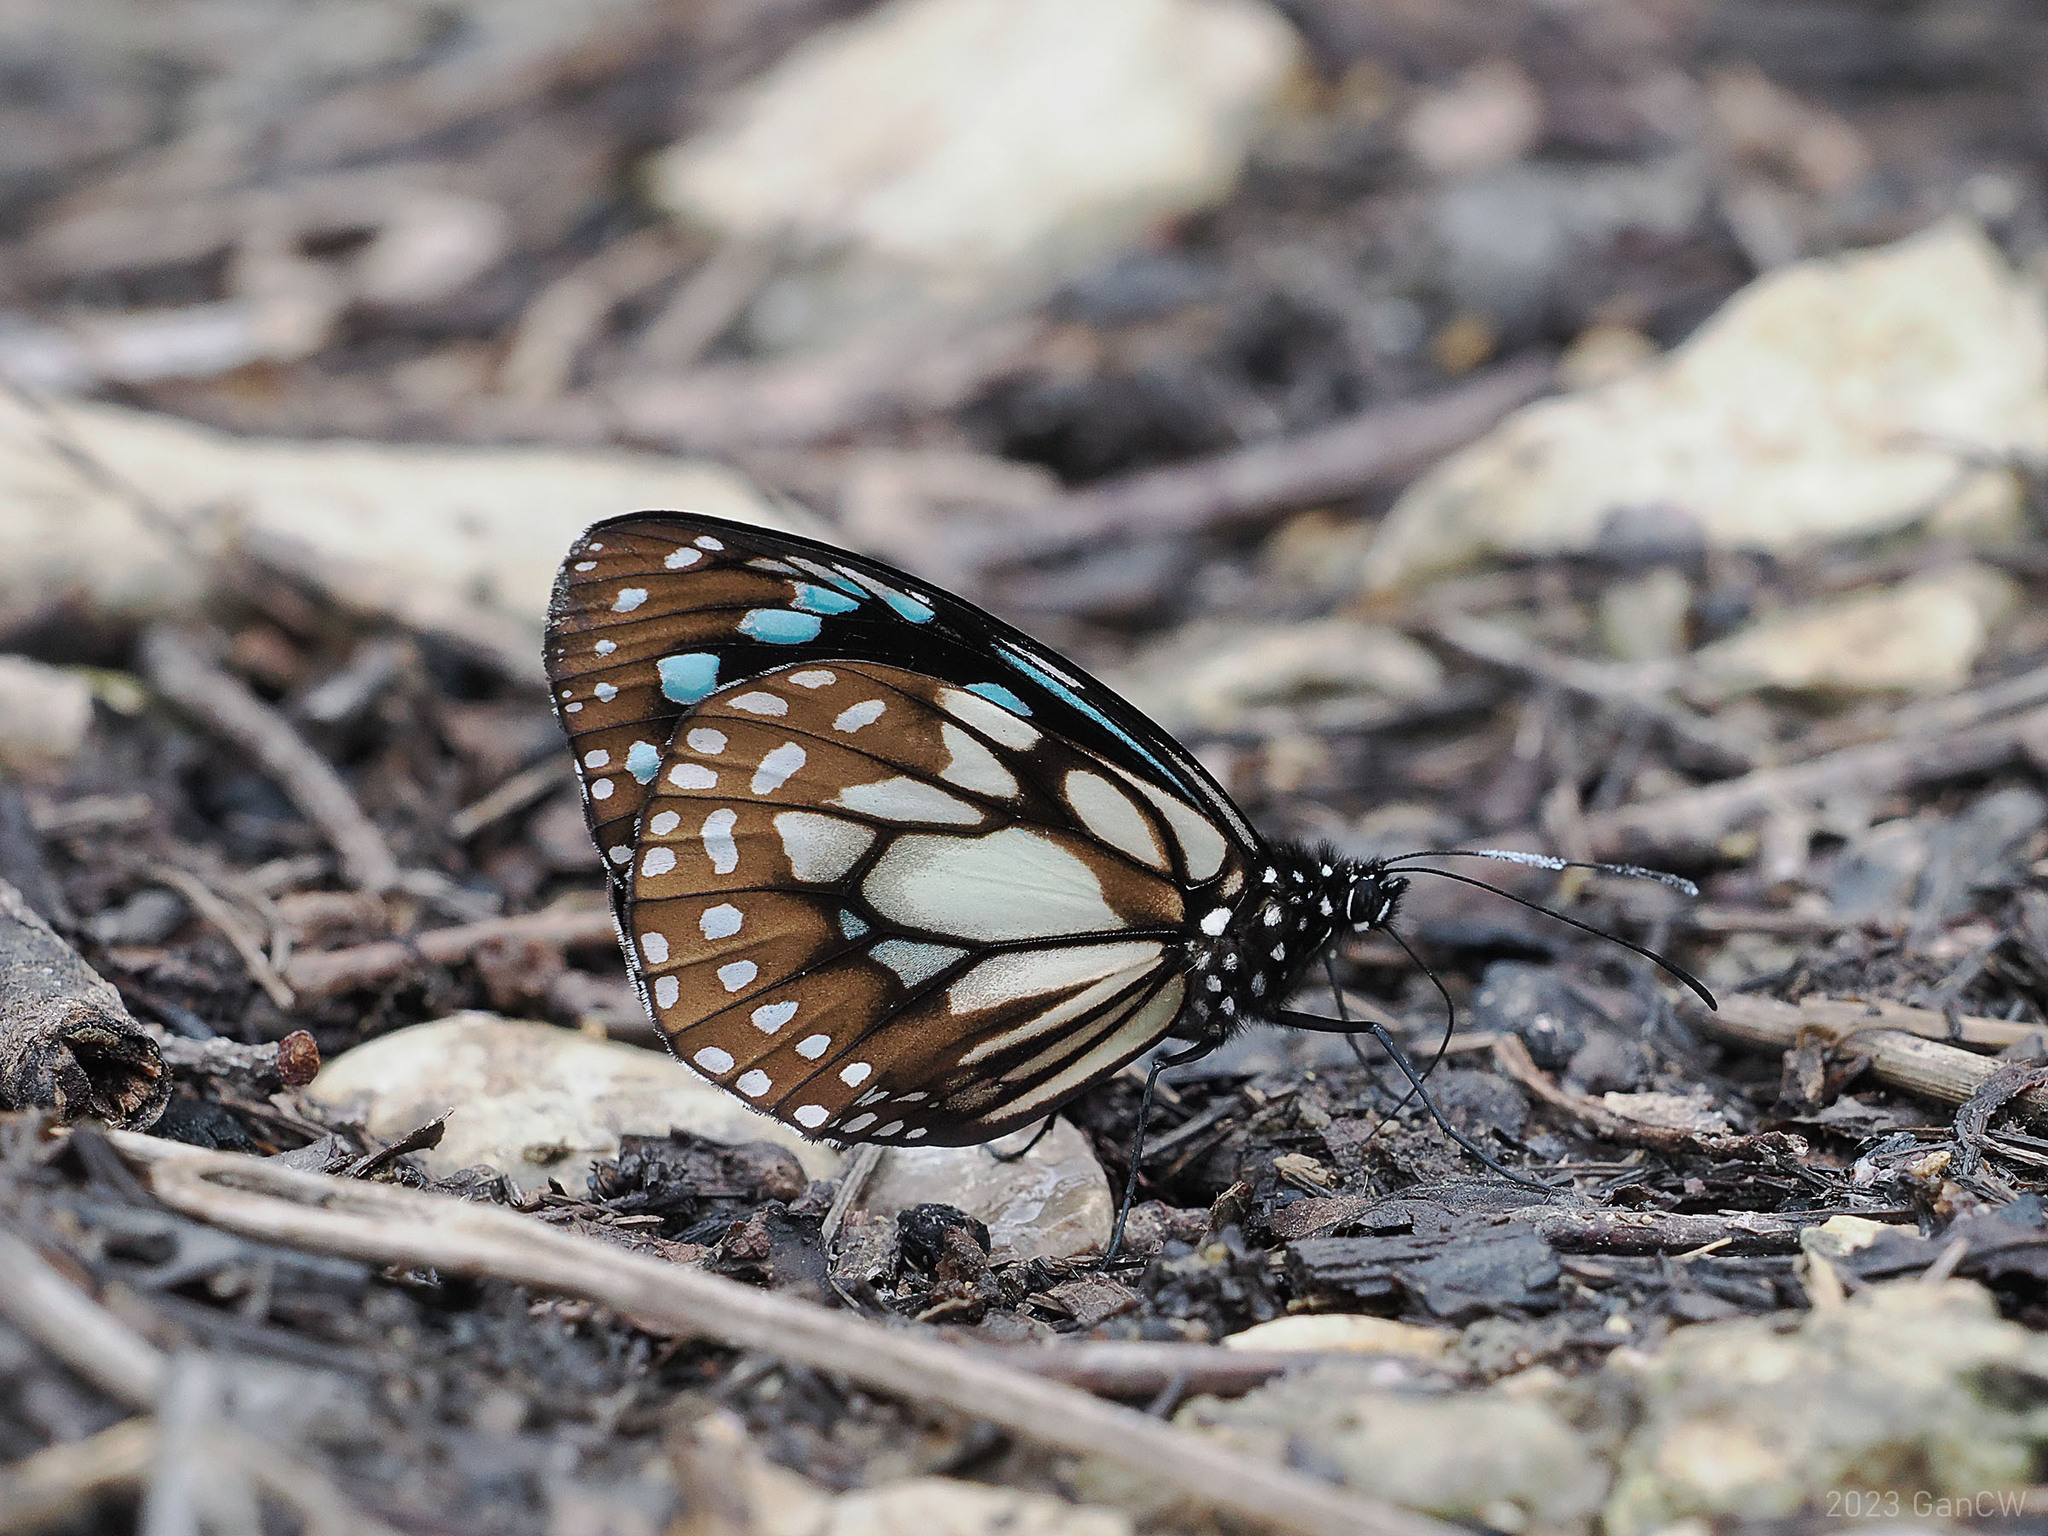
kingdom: Animalia
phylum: Arthropoda
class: Insecta
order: Lepidoptera
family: Nymphalidae
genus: Miriamica
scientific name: Miriamica weiskei
